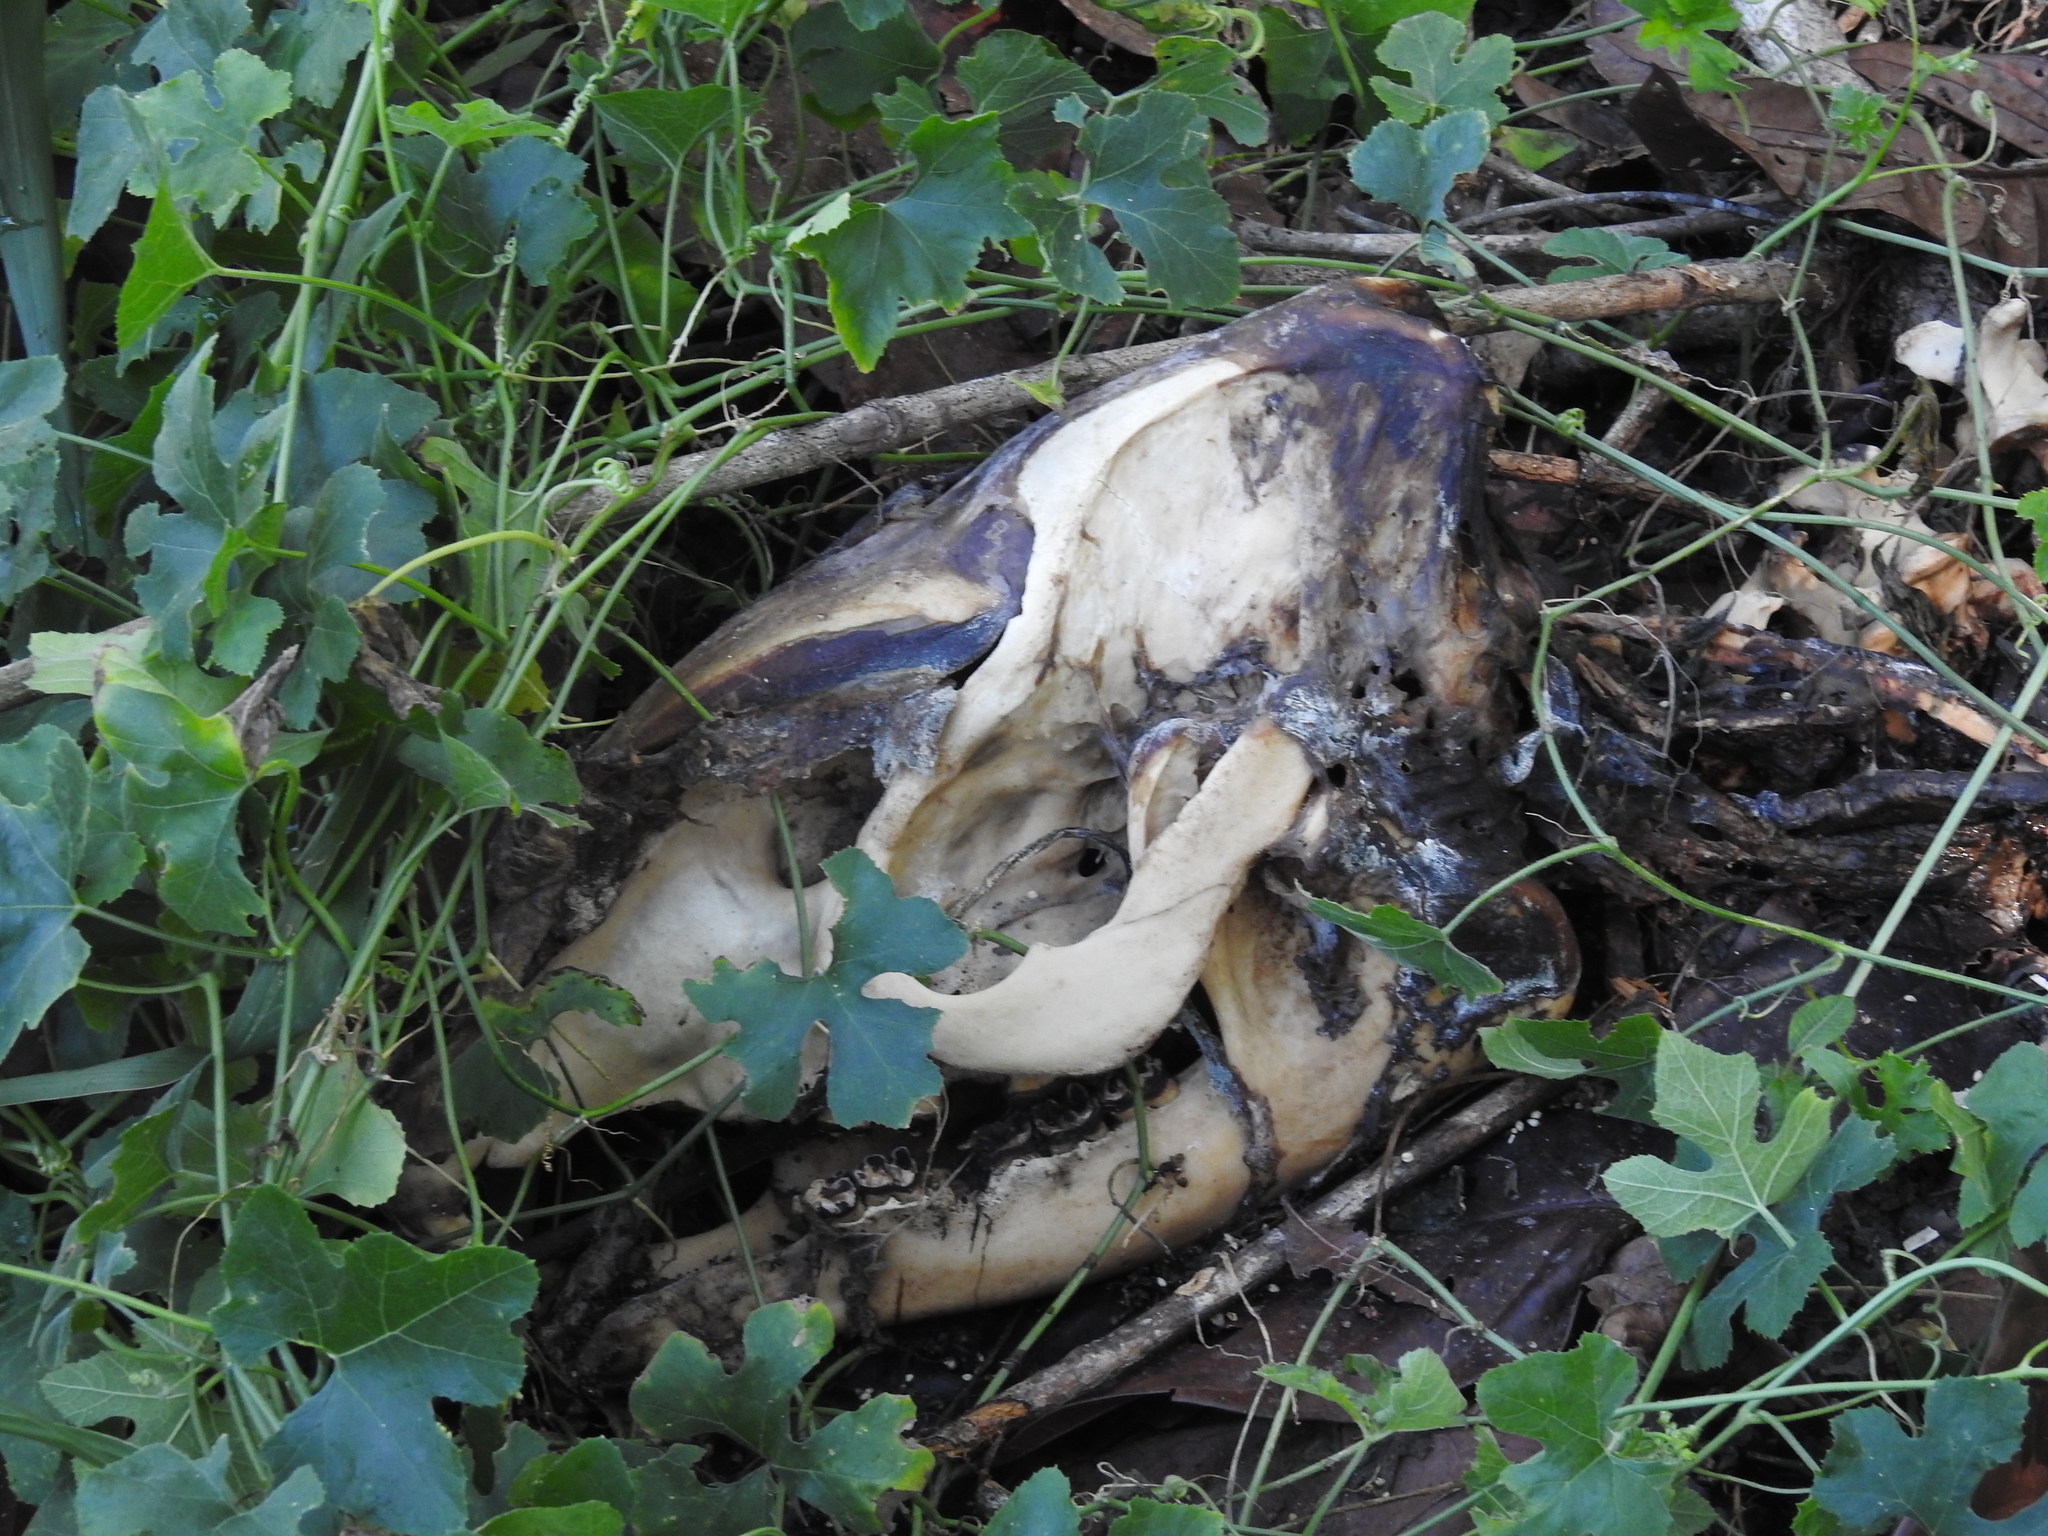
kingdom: Animalia
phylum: Chordata
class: Mammalia
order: Perissodactyla
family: Tapiridae
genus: Tapirella
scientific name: Tapirella bairdii
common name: Baird's tapir
